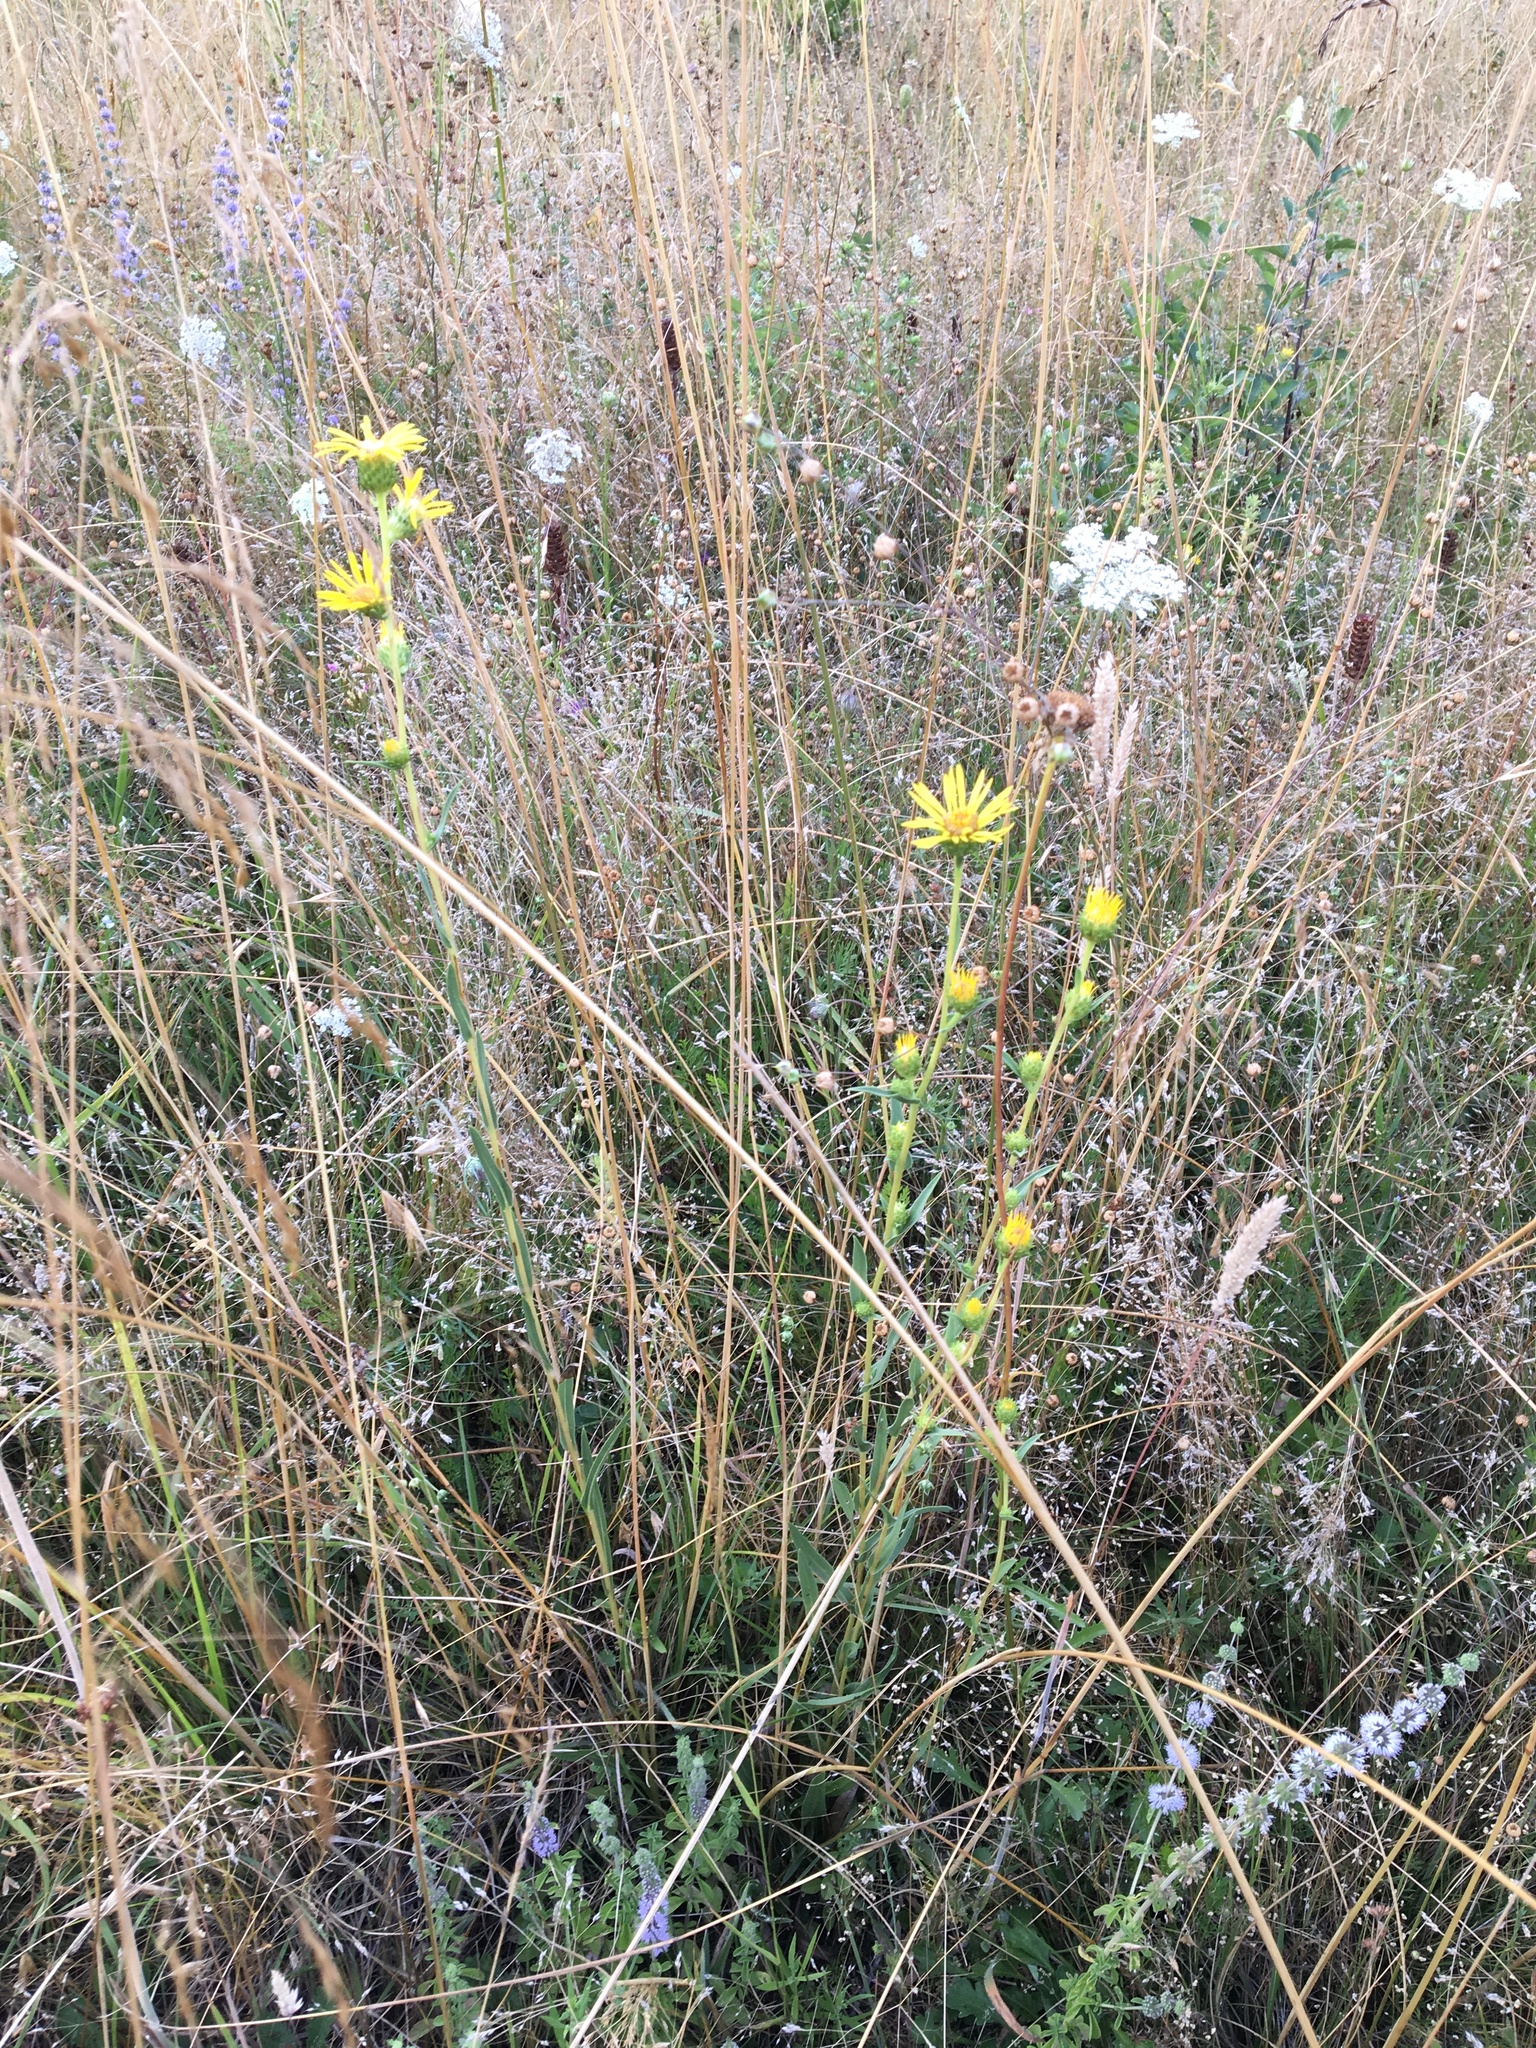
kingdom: Plantae
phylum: Tracheophyta
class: Magnoliopsida
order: Asterales
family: Asteraceae
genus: Pyrrocoma
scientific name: Pyrrocoma racemosa
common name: Clustered goldenweed
